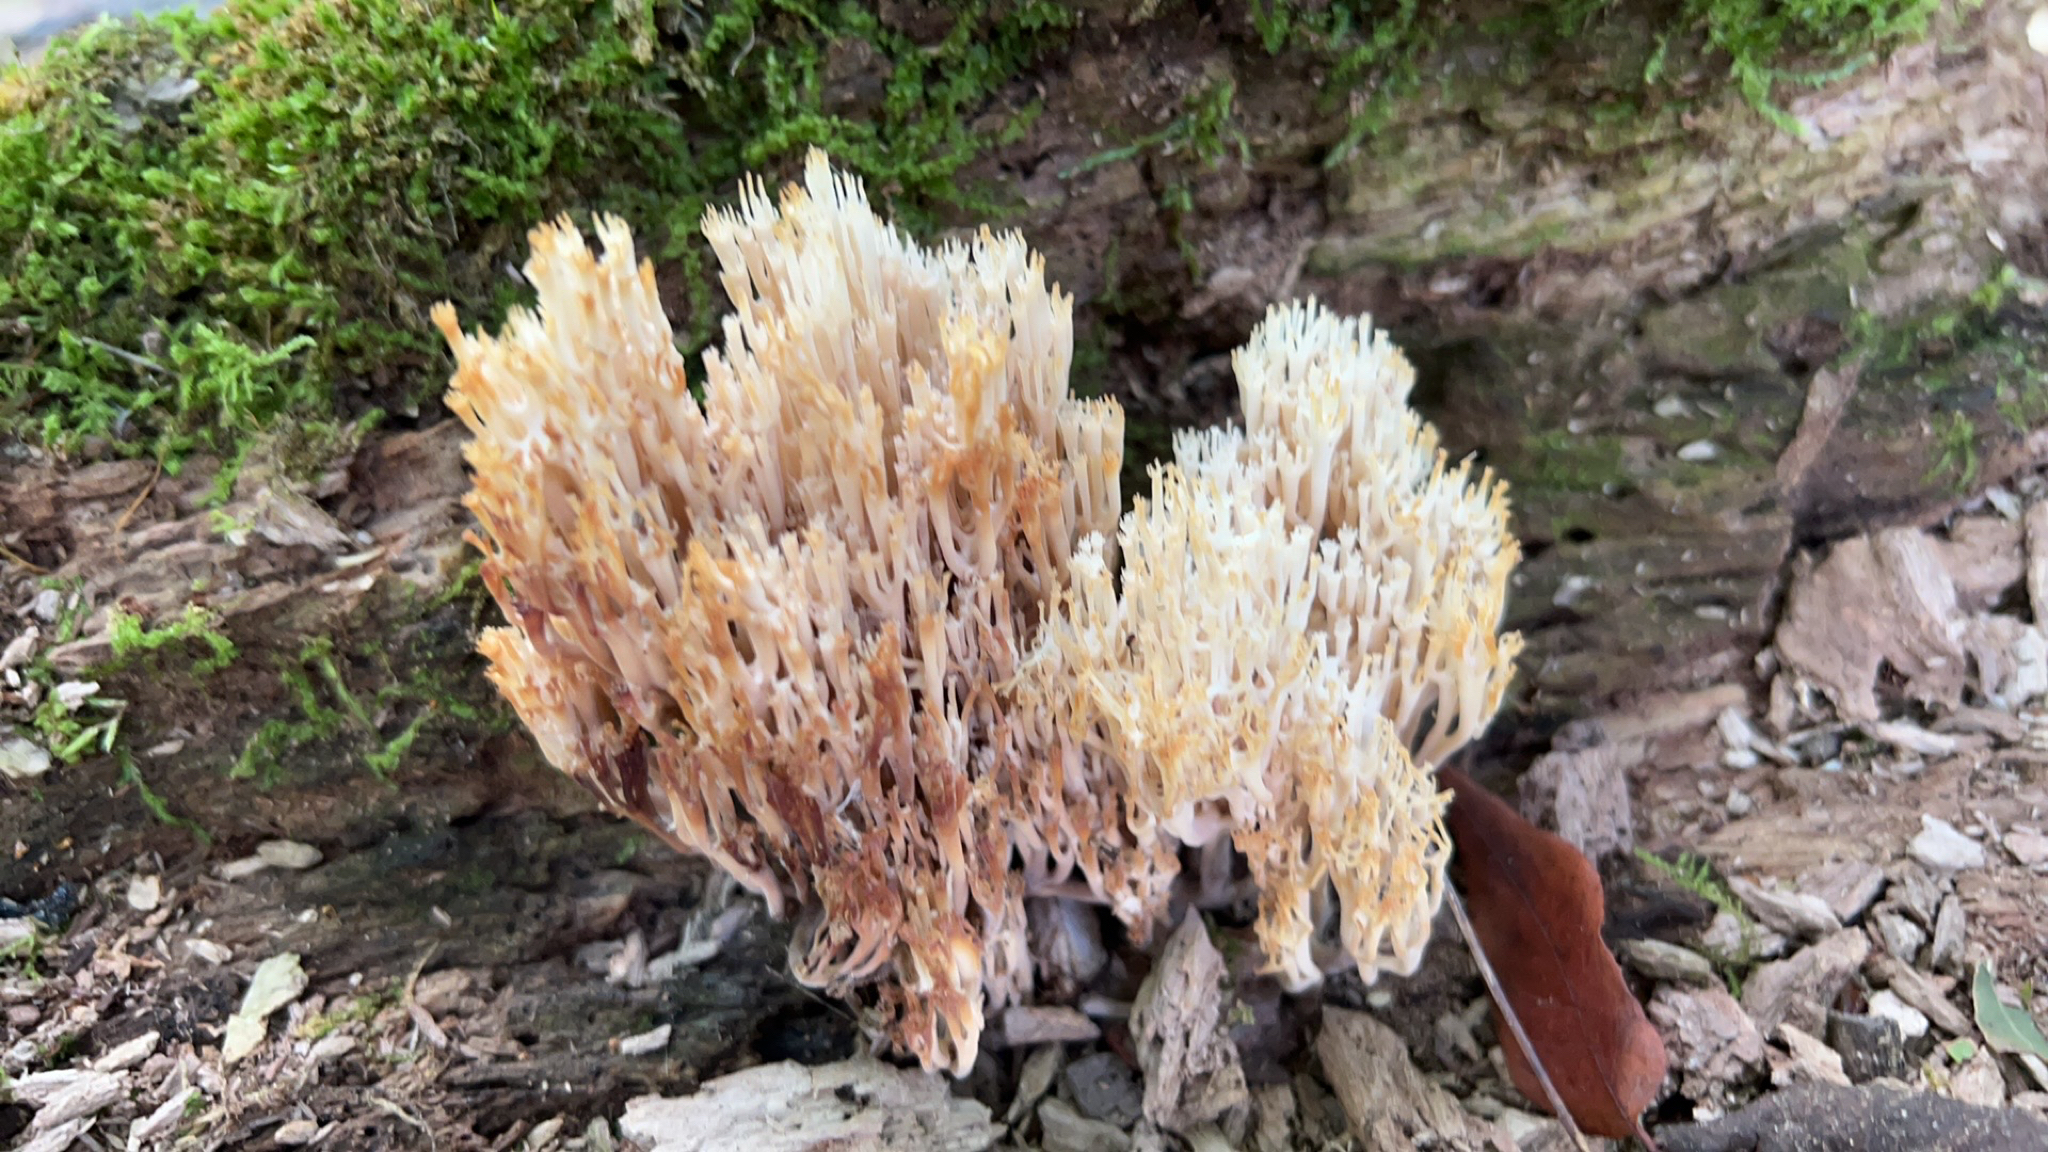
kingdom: Fungi
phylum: Basidiomycota
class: Agaricomycetes
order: Russulales
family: Auriscalpiaceae
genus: Artomyces
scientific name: Artomyces pyxidatus
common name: Crown-tipped coral fungus
